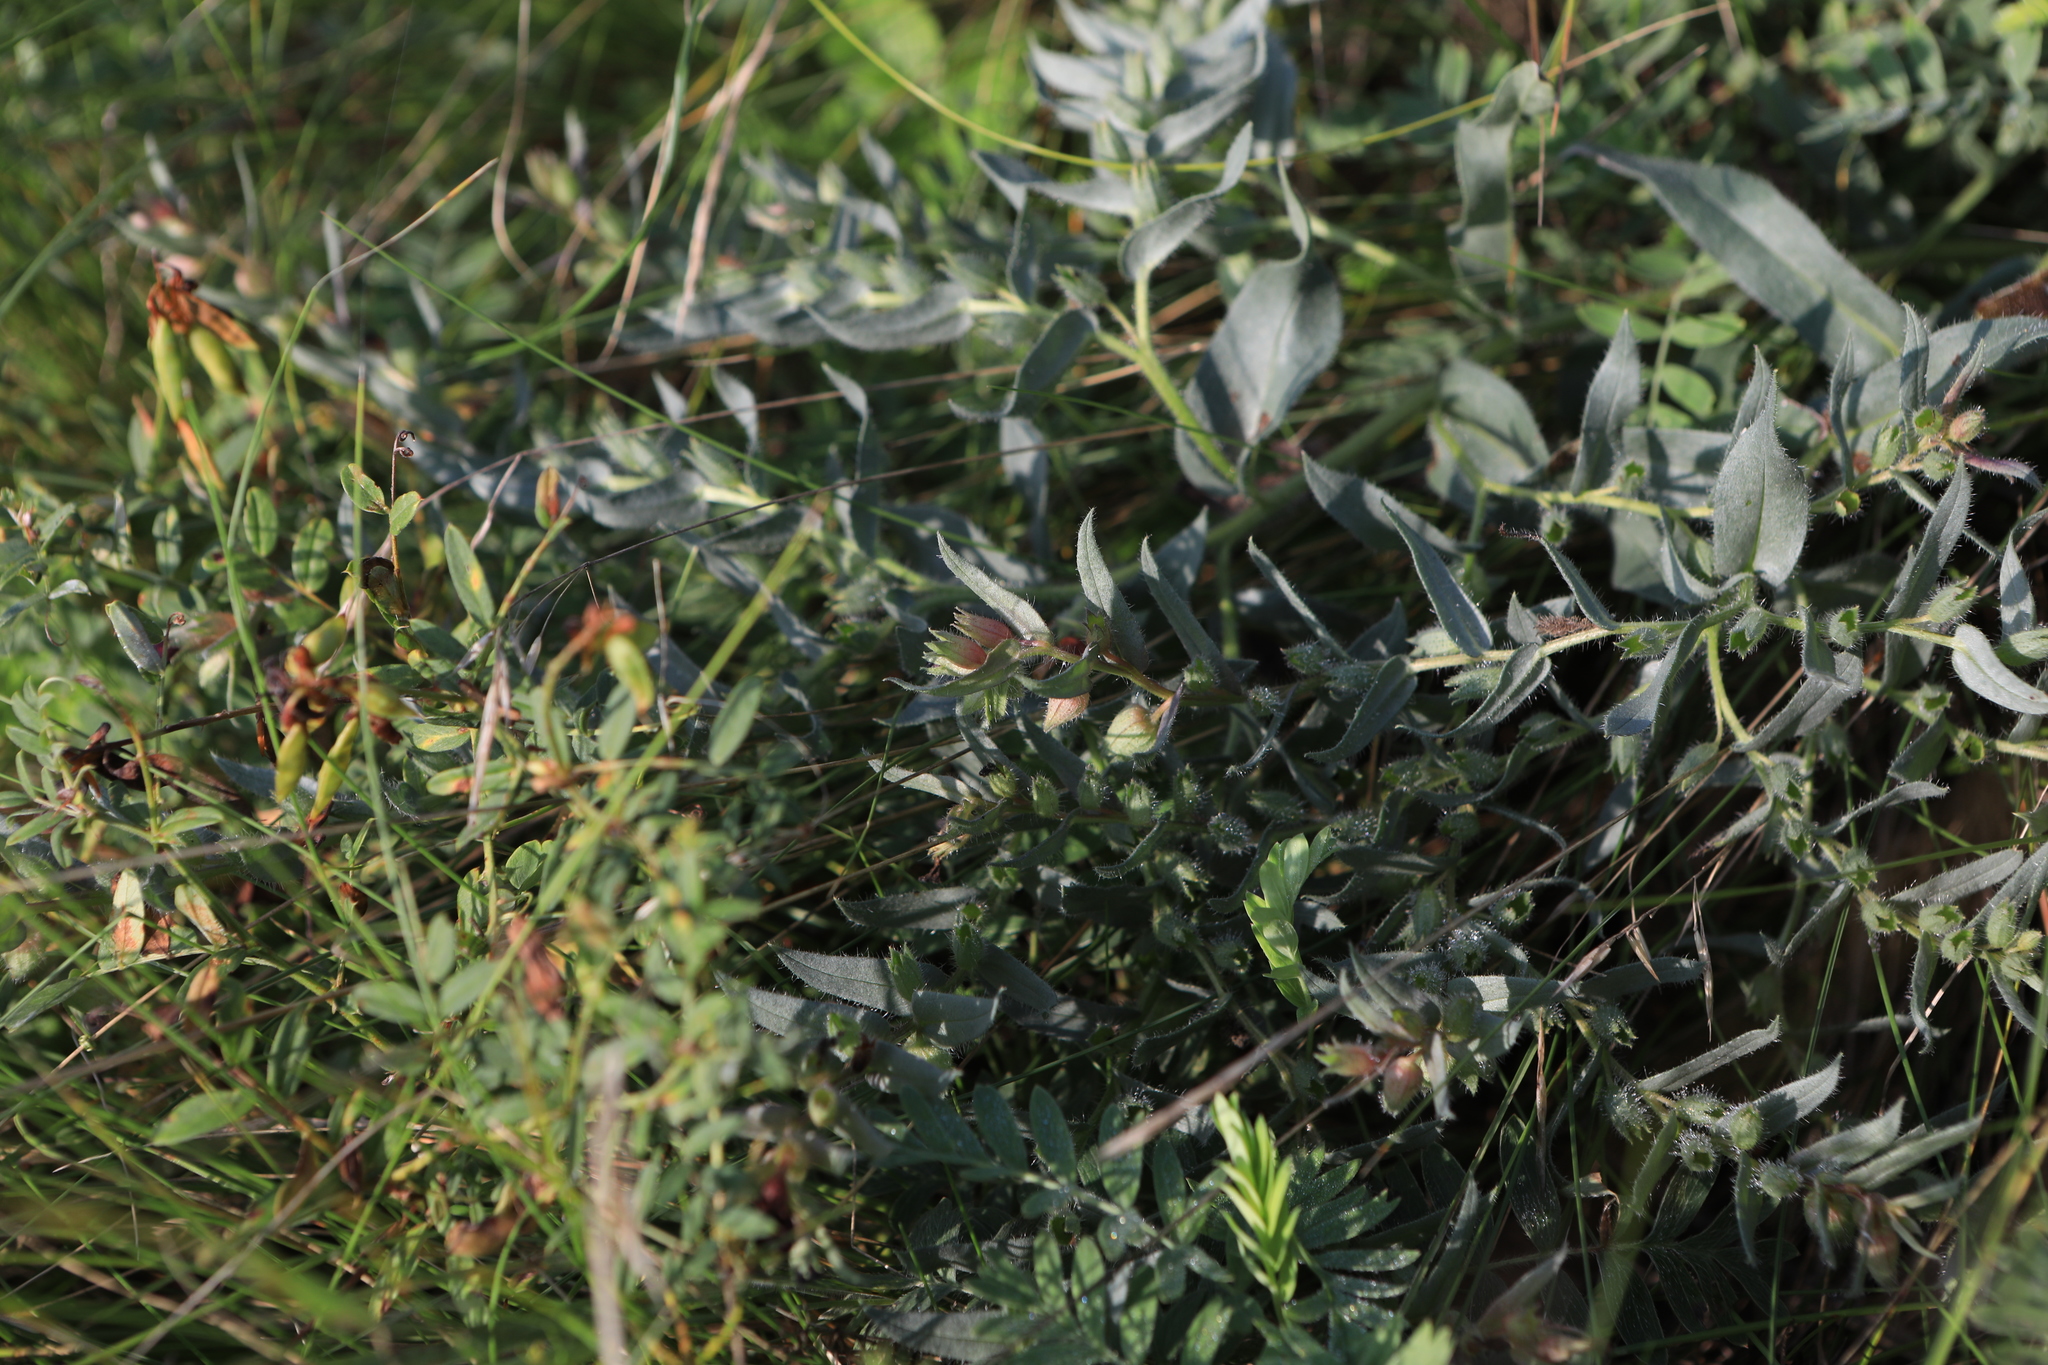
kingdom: Plantae
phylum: Tracheophyta
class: Magnoliopsida
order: Boraginales
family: Boraginaceae
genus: Nonea
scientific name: Nonea pulla
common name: Brown nonea
